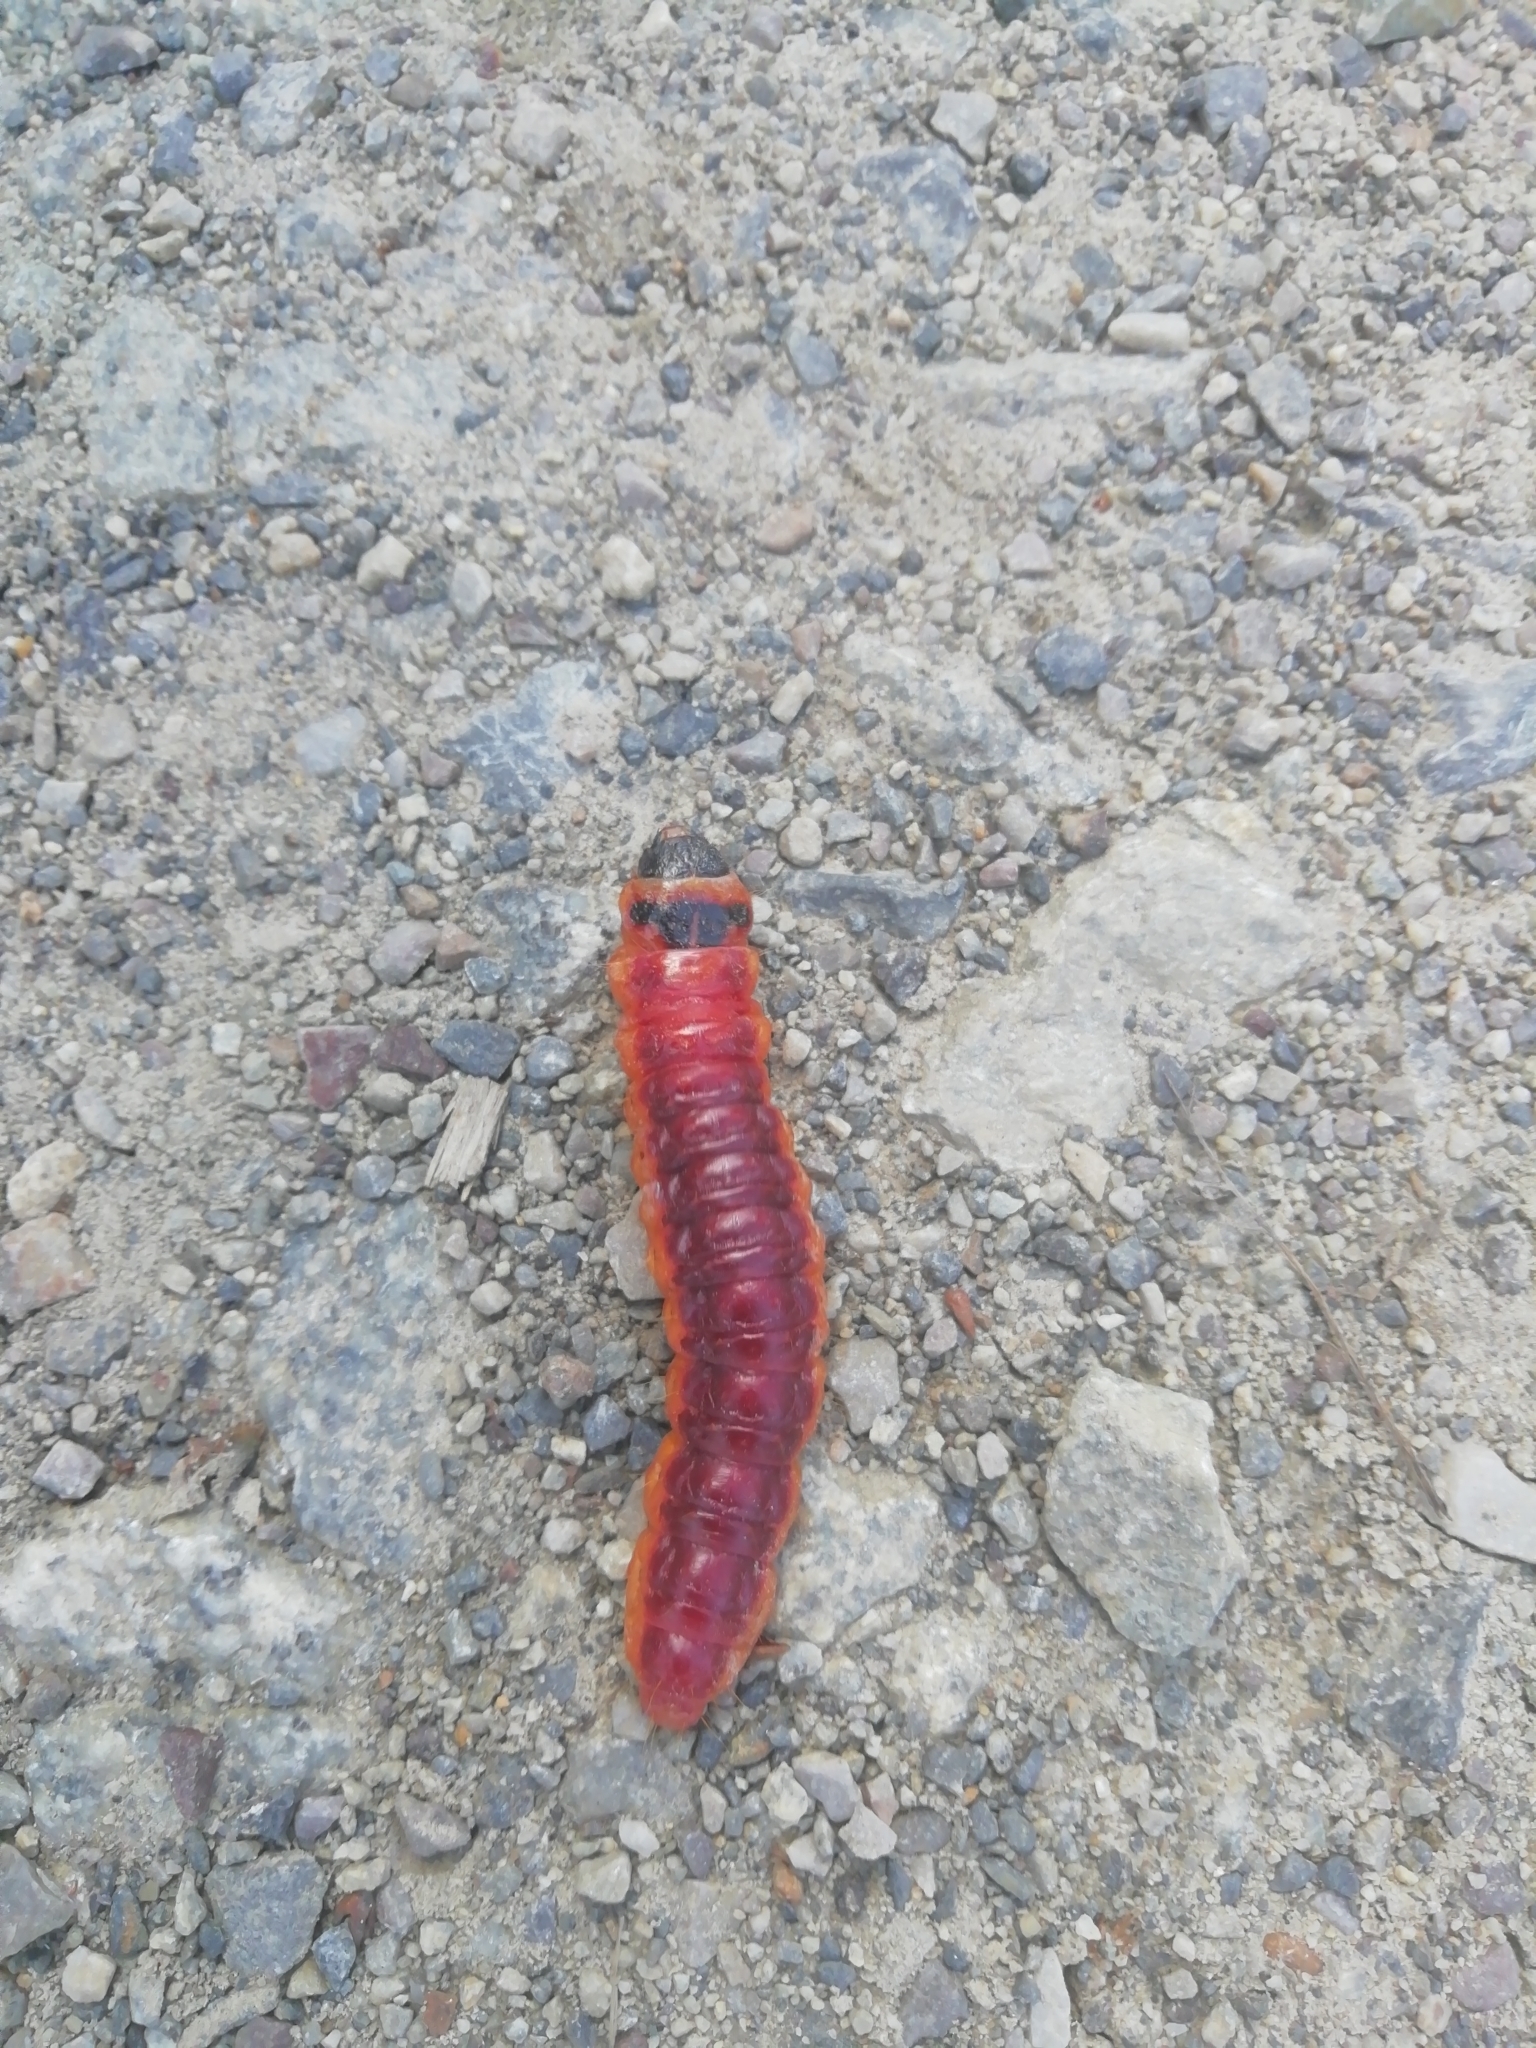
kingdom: Animalia
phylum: Arthropoda
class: Insecta
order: Lepidoptera
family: Cossidae
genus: Cossus
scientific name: Cossus cossus
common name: Goat moth
